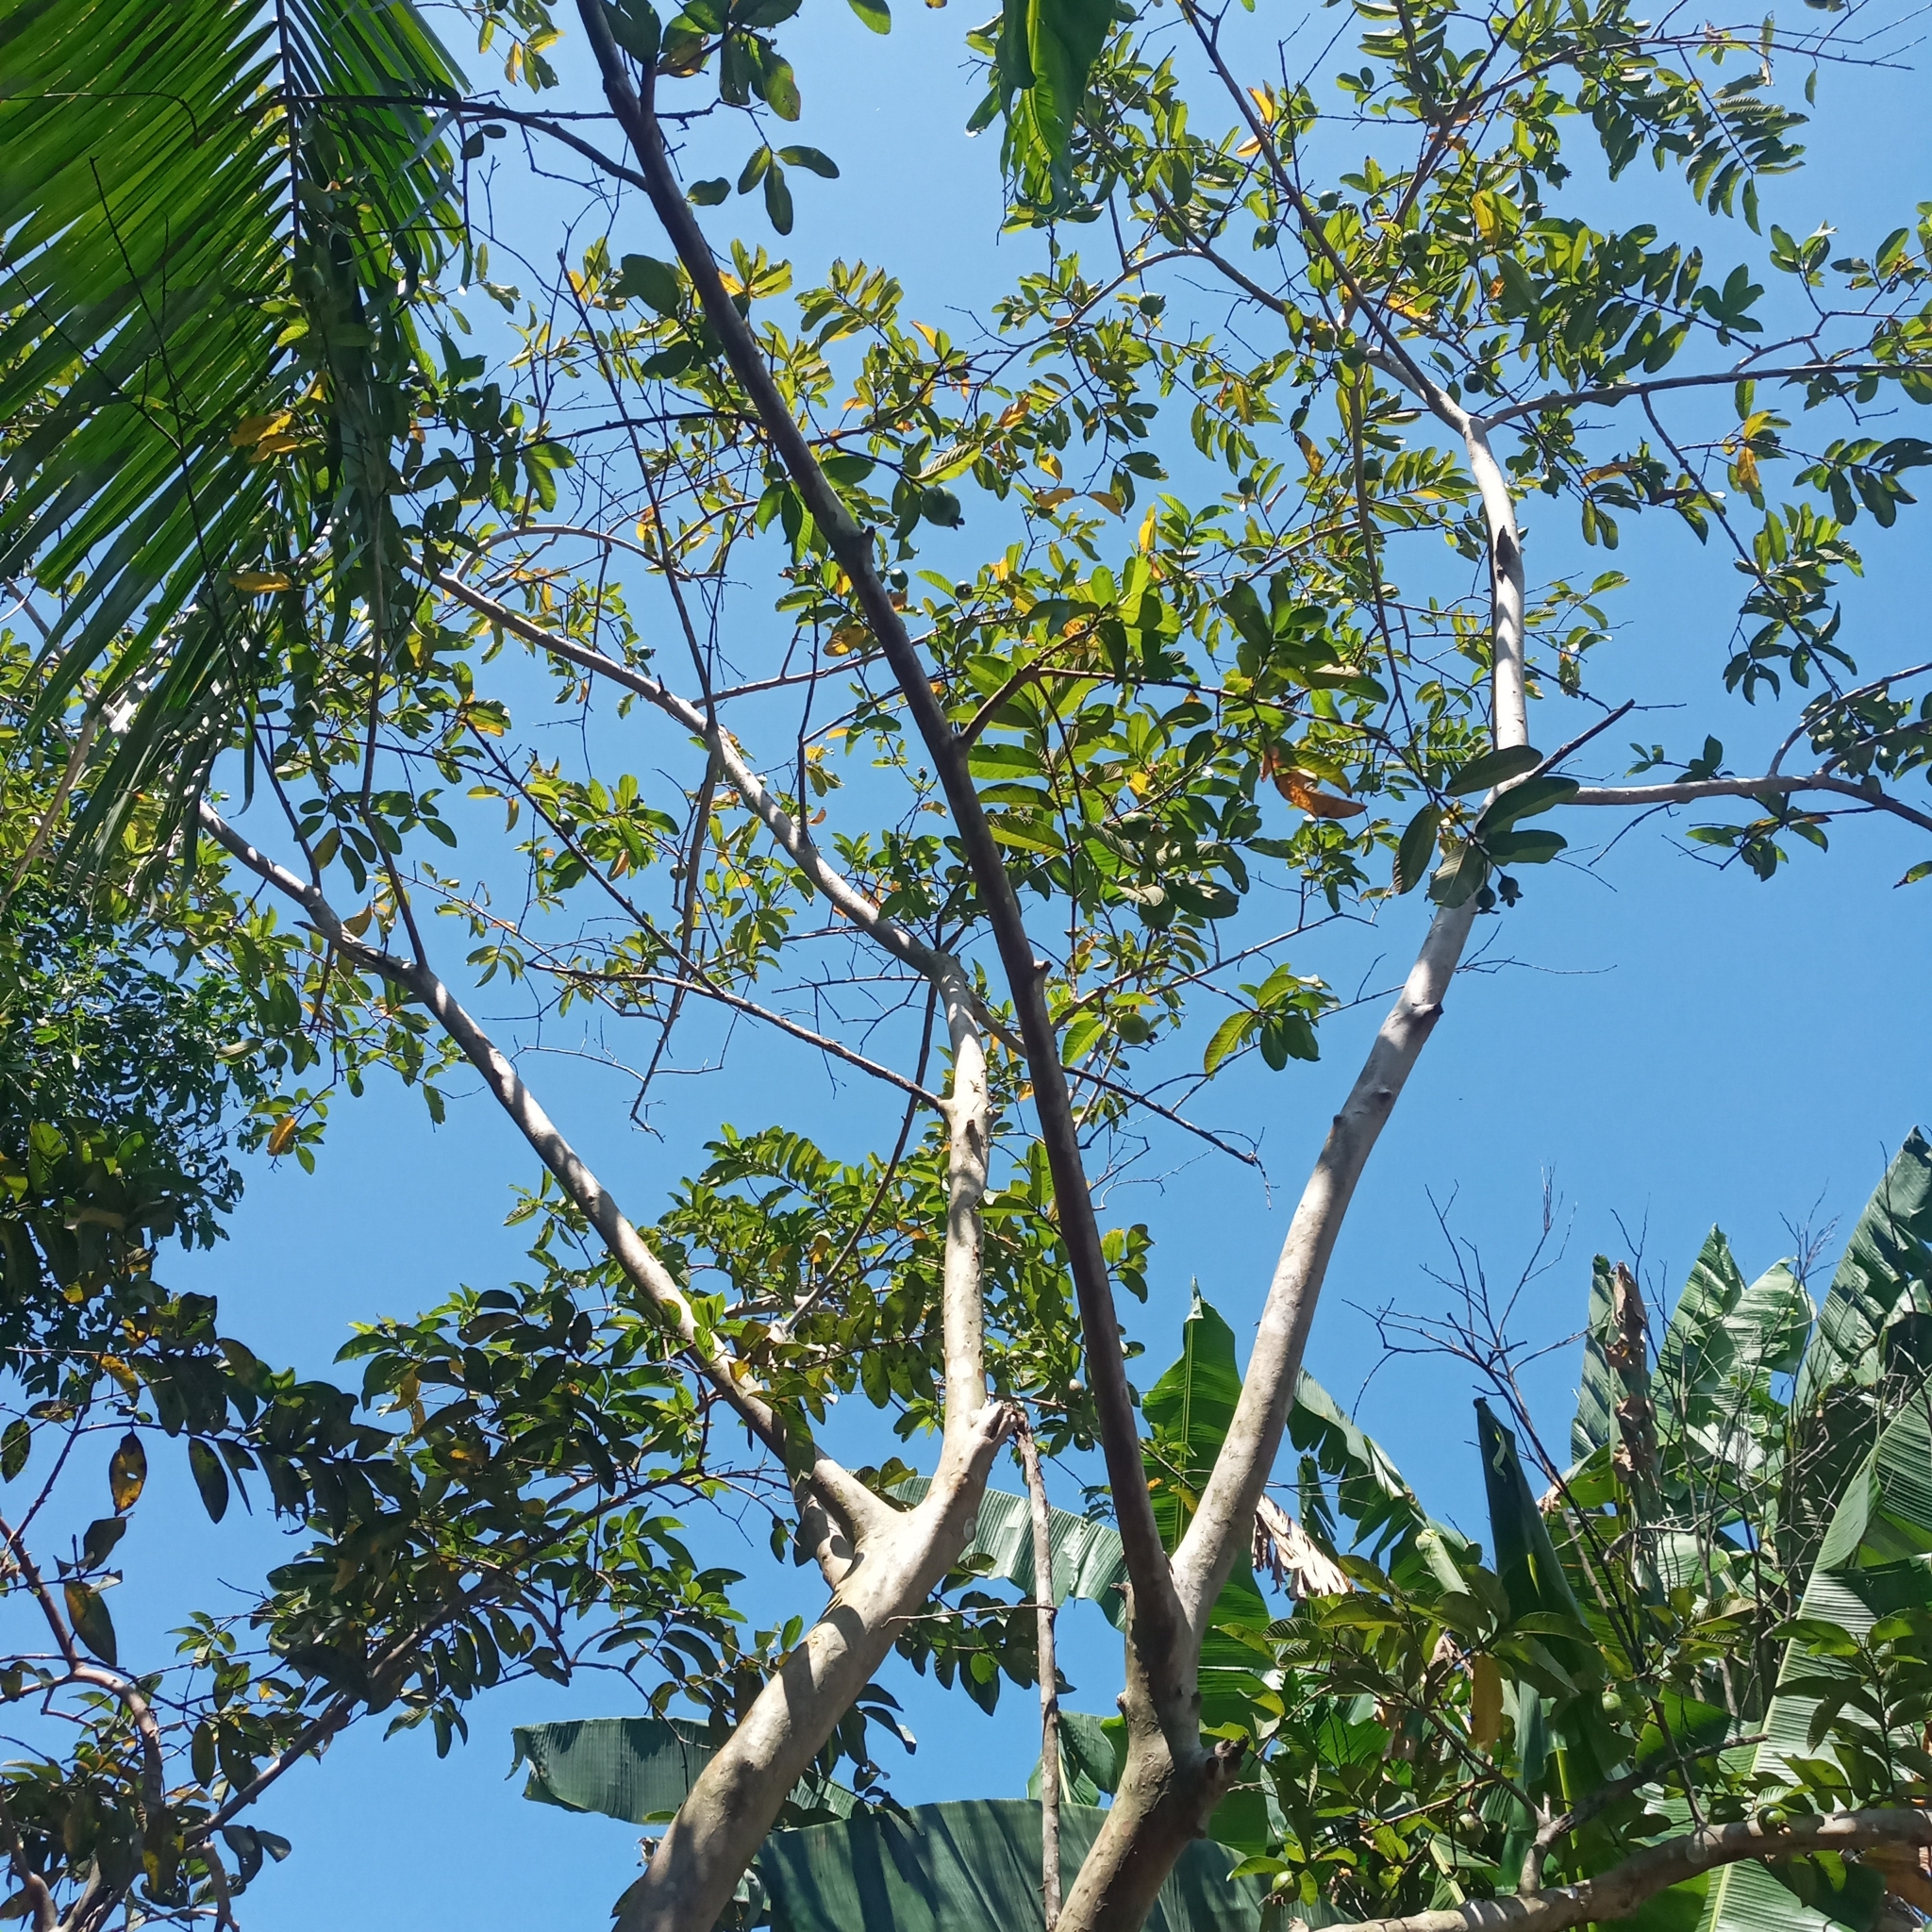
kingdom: Plantae
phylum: Tracheophyta
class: Magnoliopsida
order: Myrtales
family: Myrtaceae
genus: Psidium
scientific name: Psidium guajava
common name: Guava
